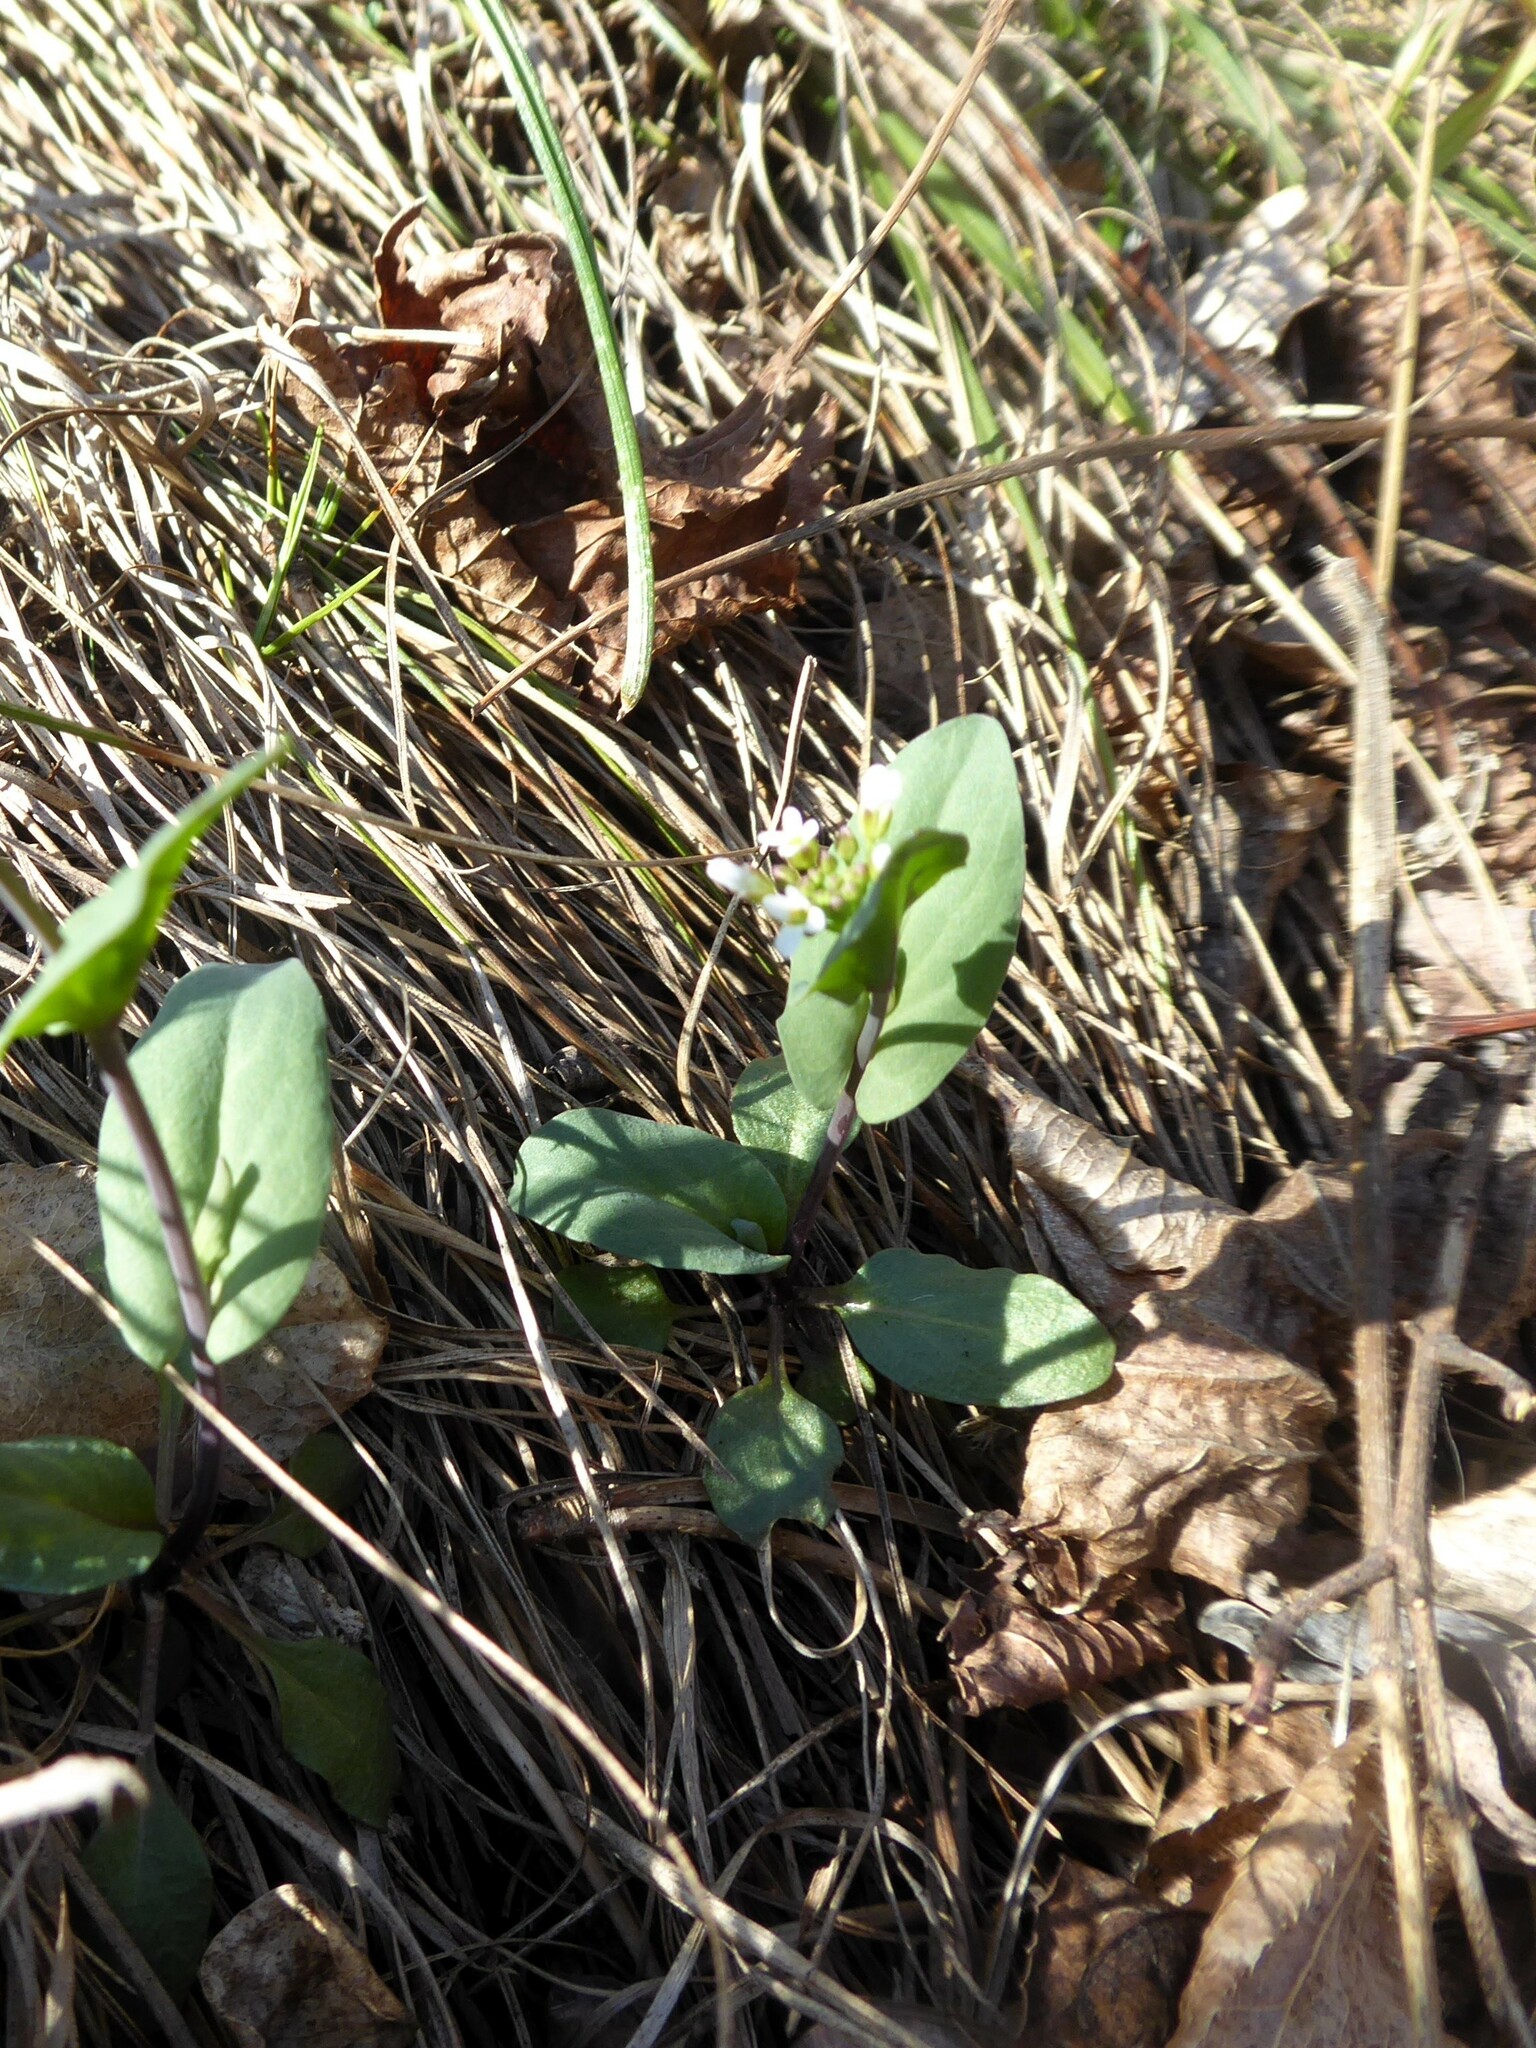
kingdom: Plantae
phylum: Tracheophyta
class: Magnoliopsida
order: Brassicales
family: Brassicaceae
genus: Noccaea
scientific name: Noccaea montana
